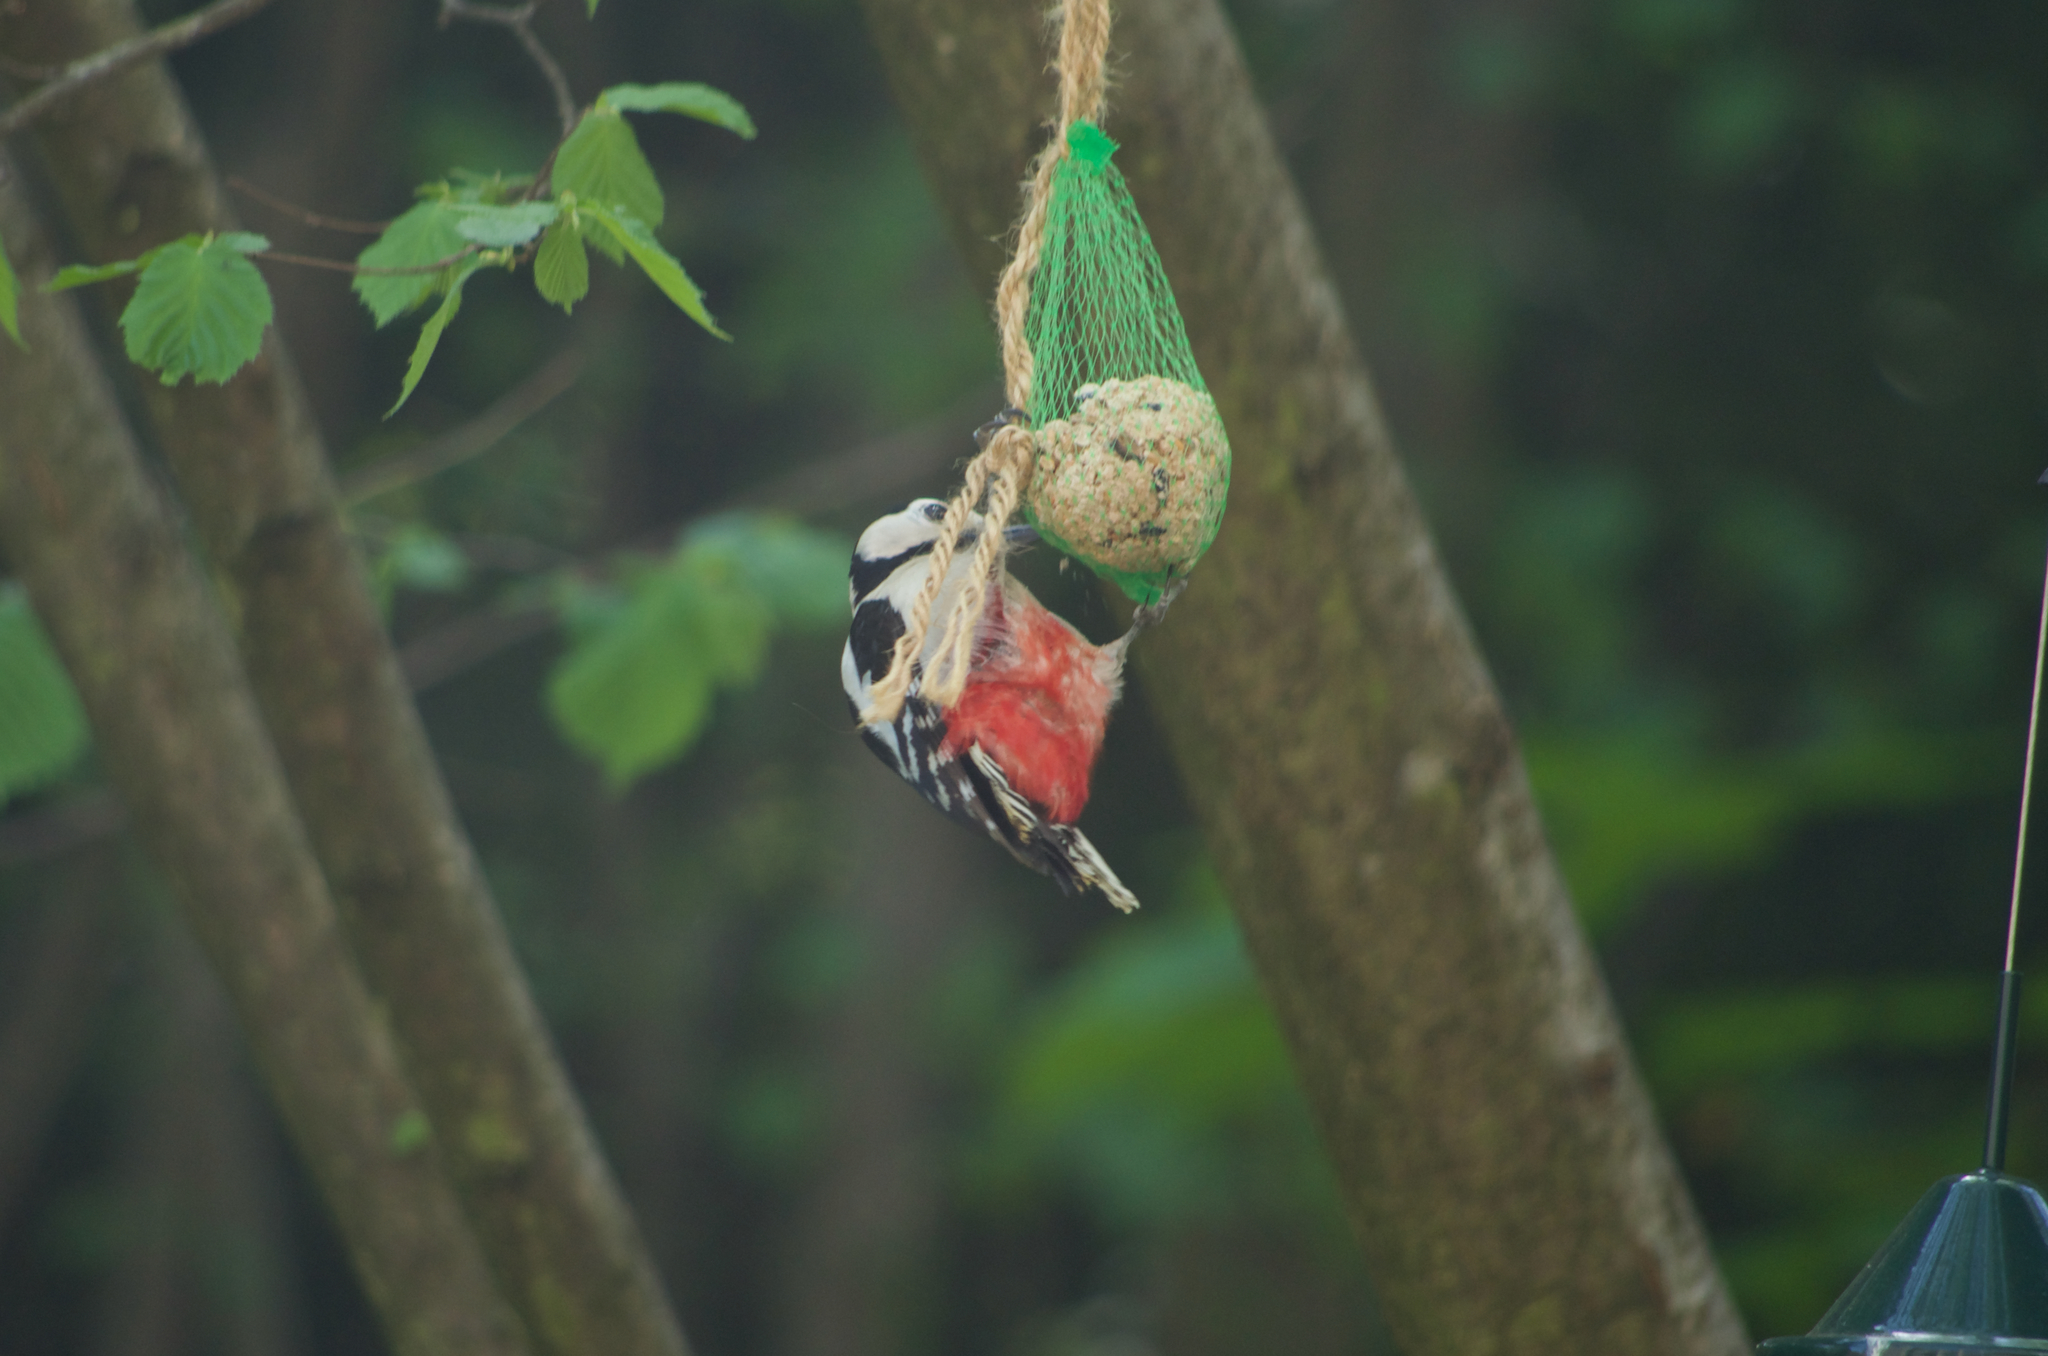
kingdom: Animalia
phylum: Chordata
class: Aves
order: Piciformes
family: Picidae
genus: Dendrocopos
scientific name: Dendrocopos major
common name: Great spotted woodpecker
